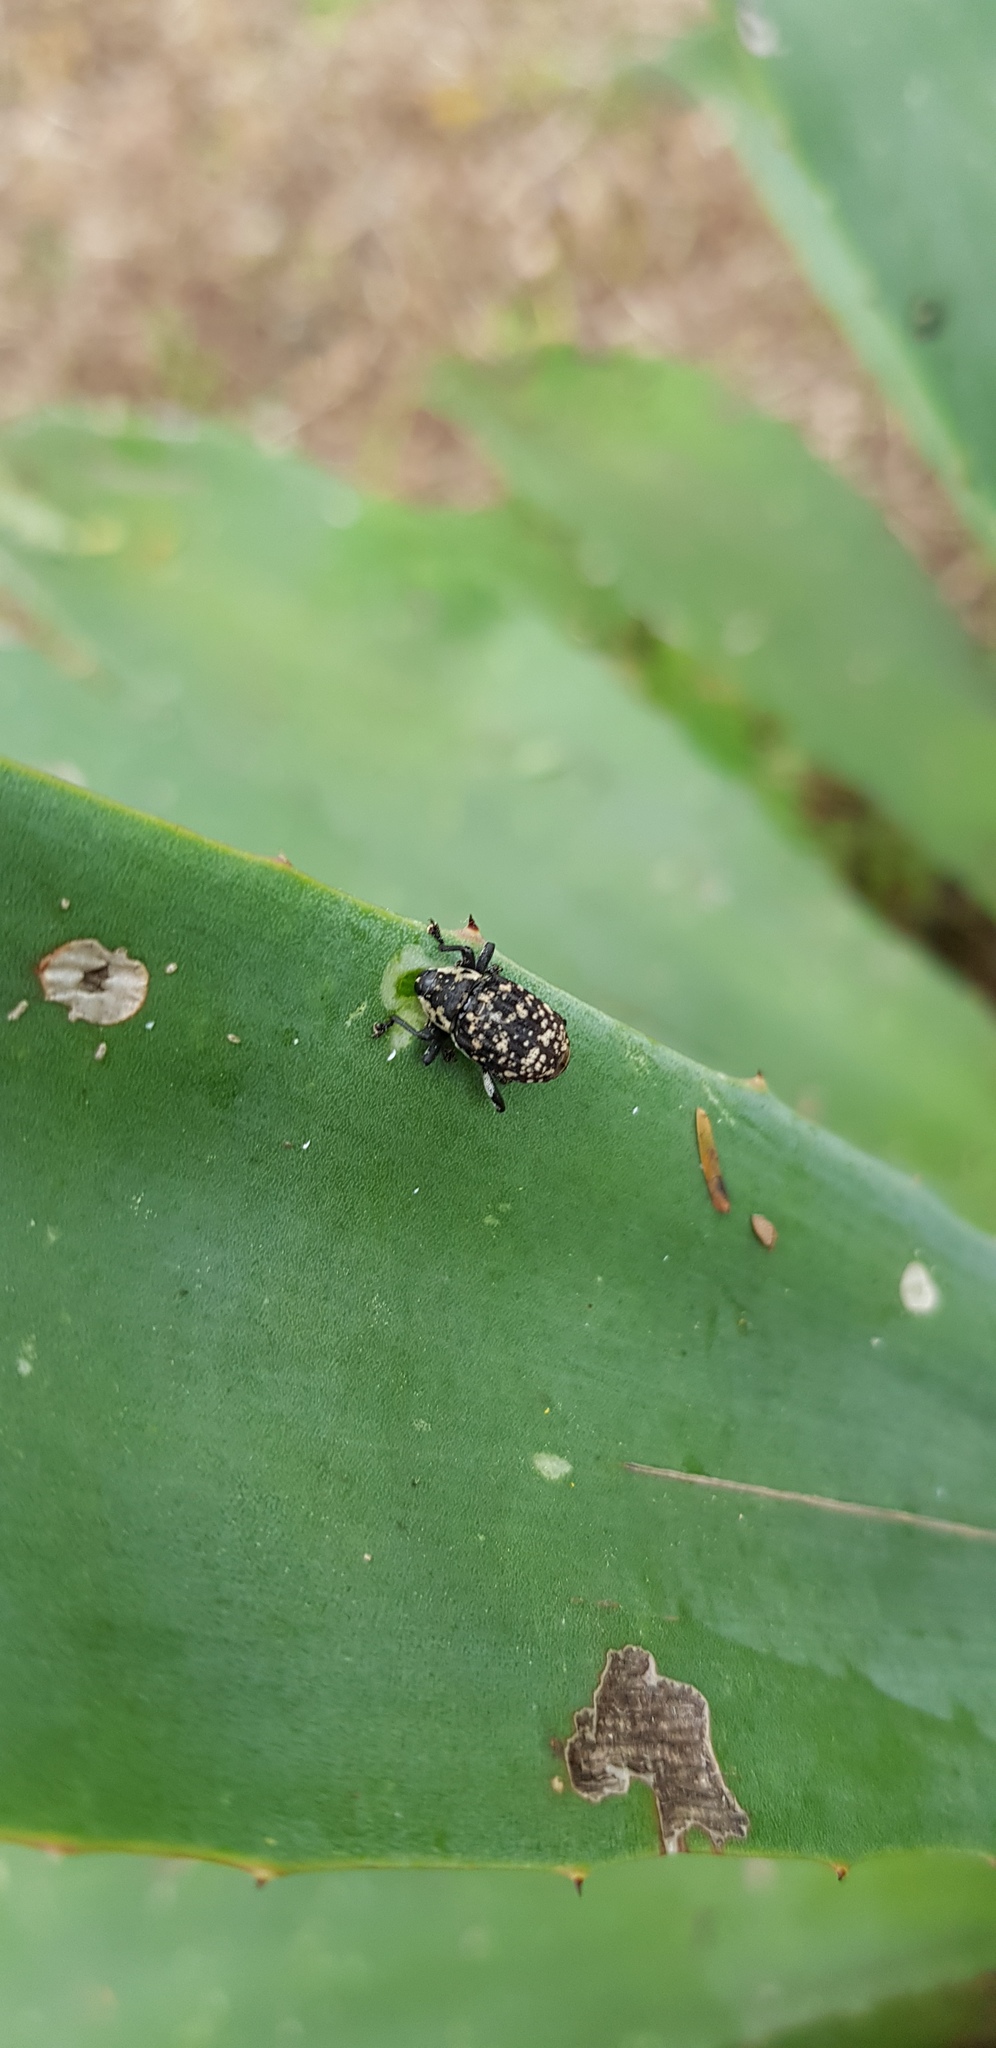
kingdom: Animalia
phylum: Arthropoda
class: Insecta
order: Coleoptera
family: Curculionidae
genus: Peltophorus
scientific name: Peltophorus polymitus
